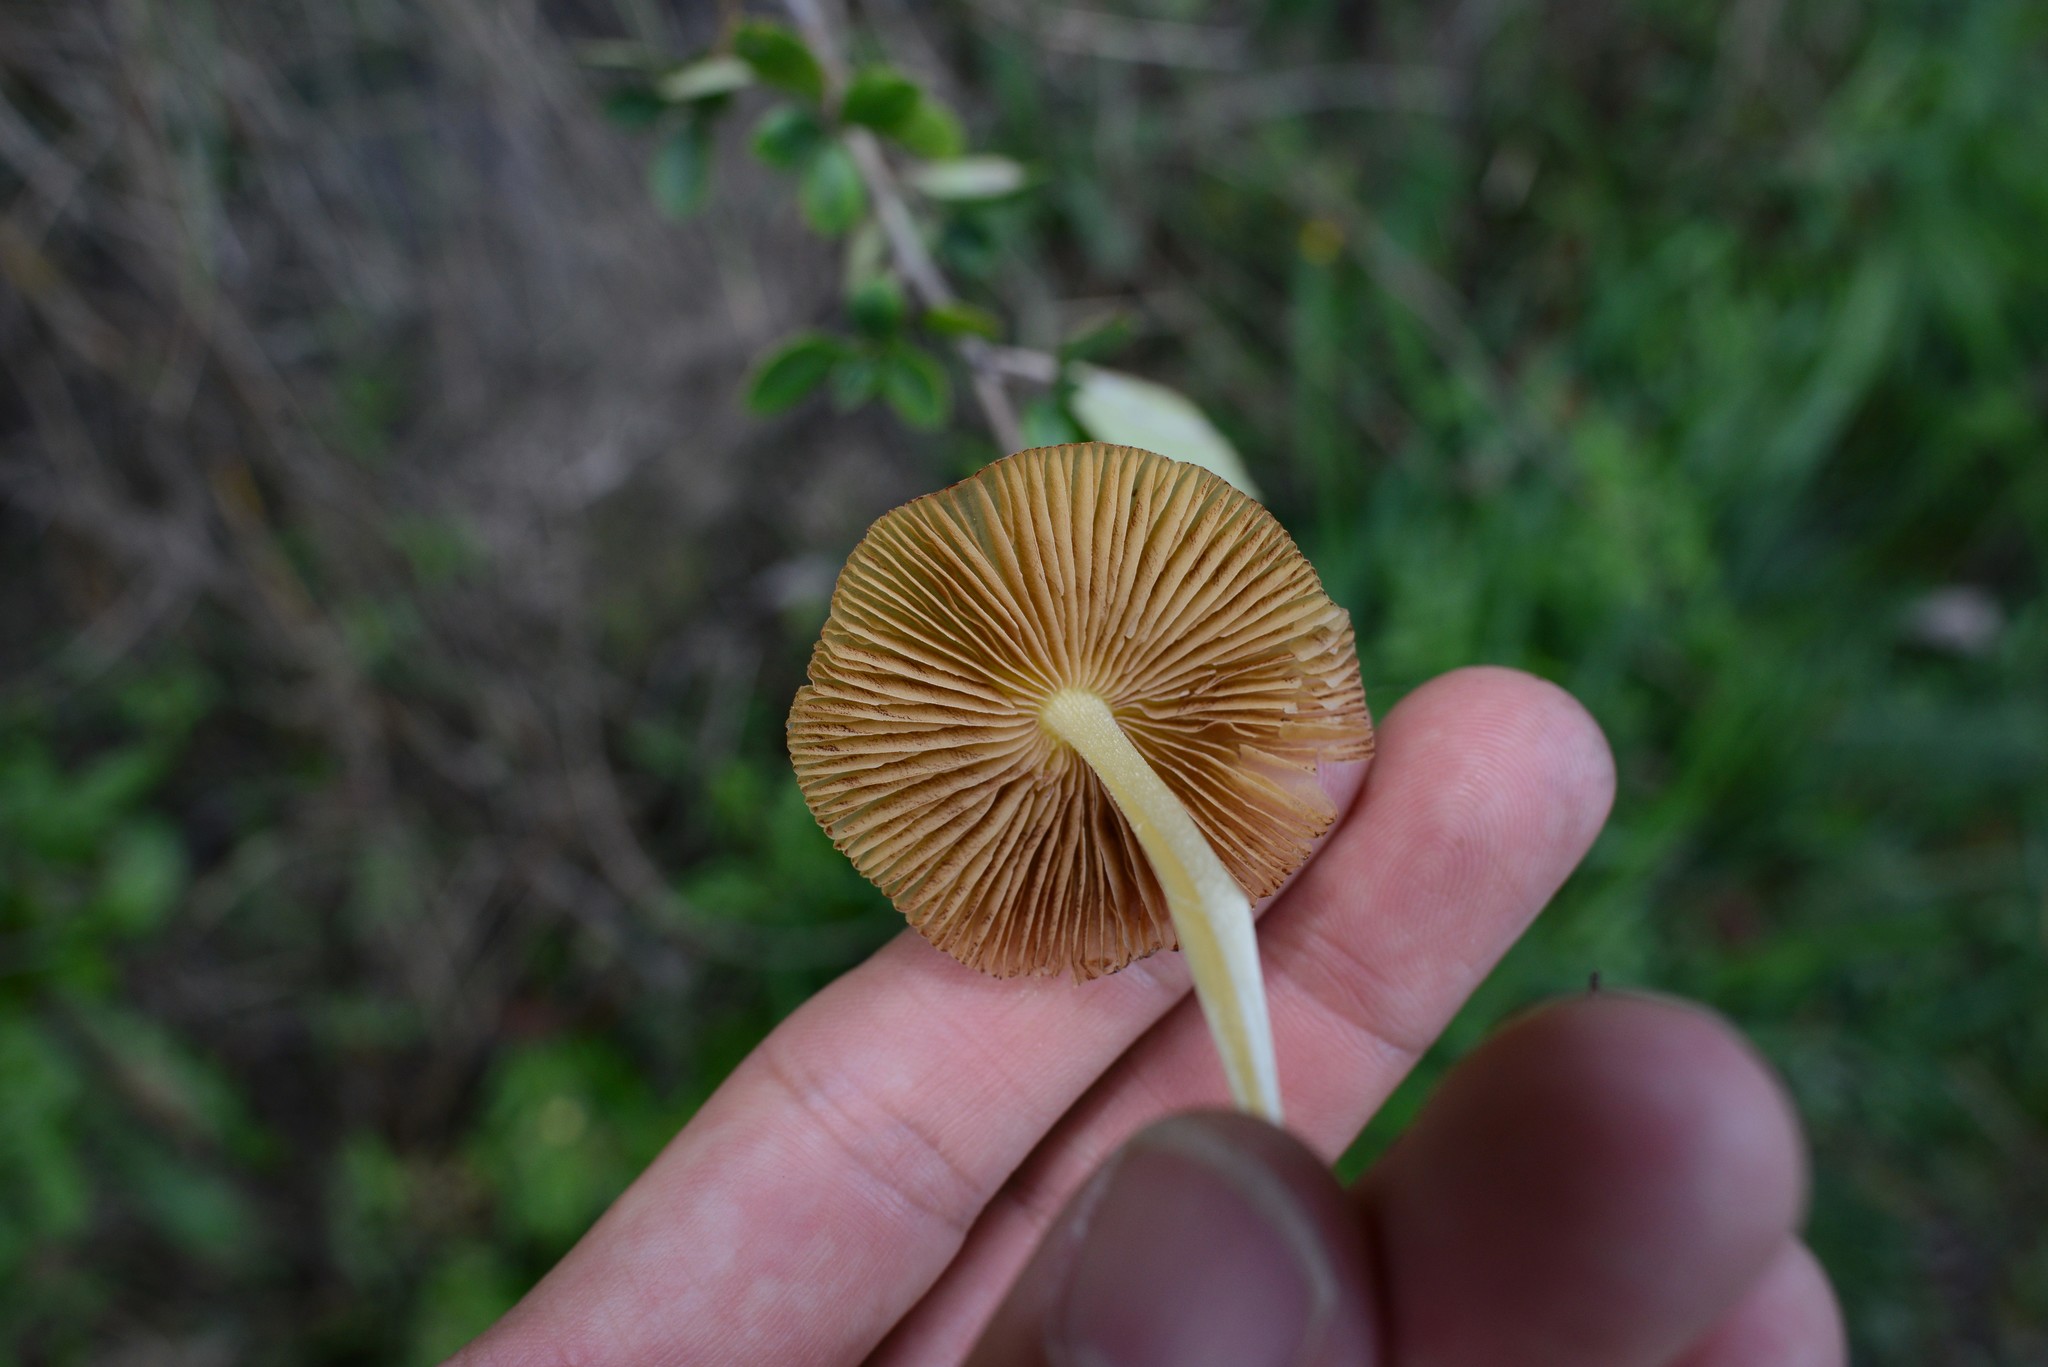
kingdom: Fungi
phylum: Basidiomycota
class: Agaricomycetes
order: Agaricales
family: Bolbitiaceae
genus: Bolbitius
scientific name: Bolbitius titubans
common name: Yellow fieldcap
